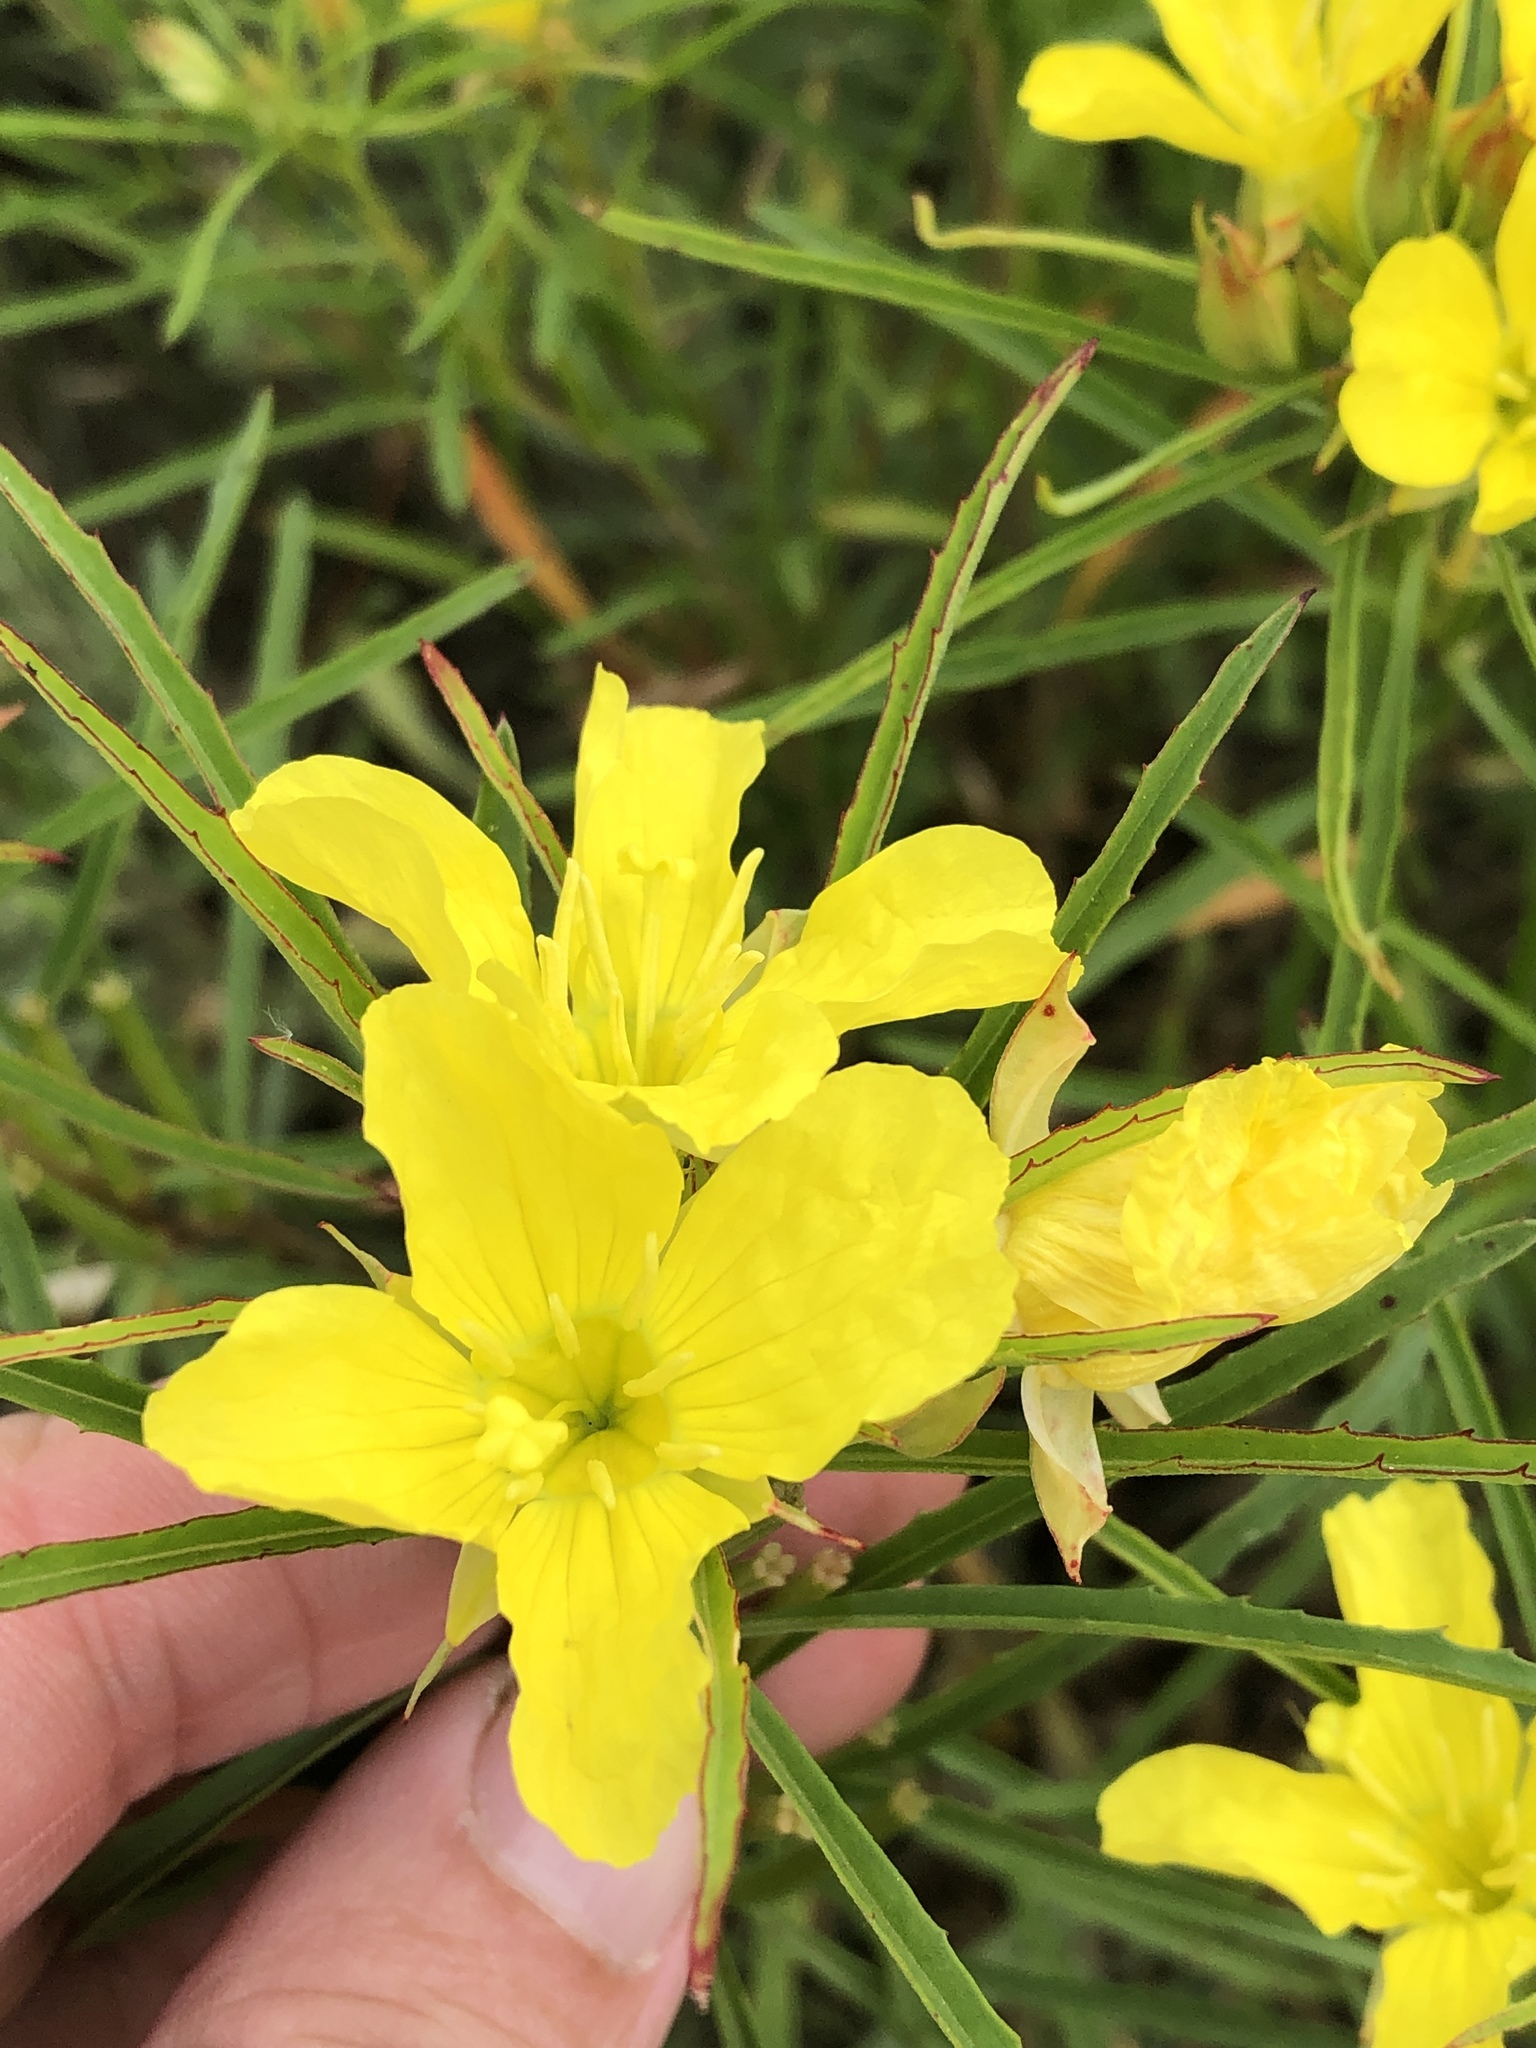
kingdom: Plantae
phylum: Tracheophyta
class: Magnoliopsida
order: Myrtales
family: Onagraceae
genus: Oenothera
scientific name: Oenothera
